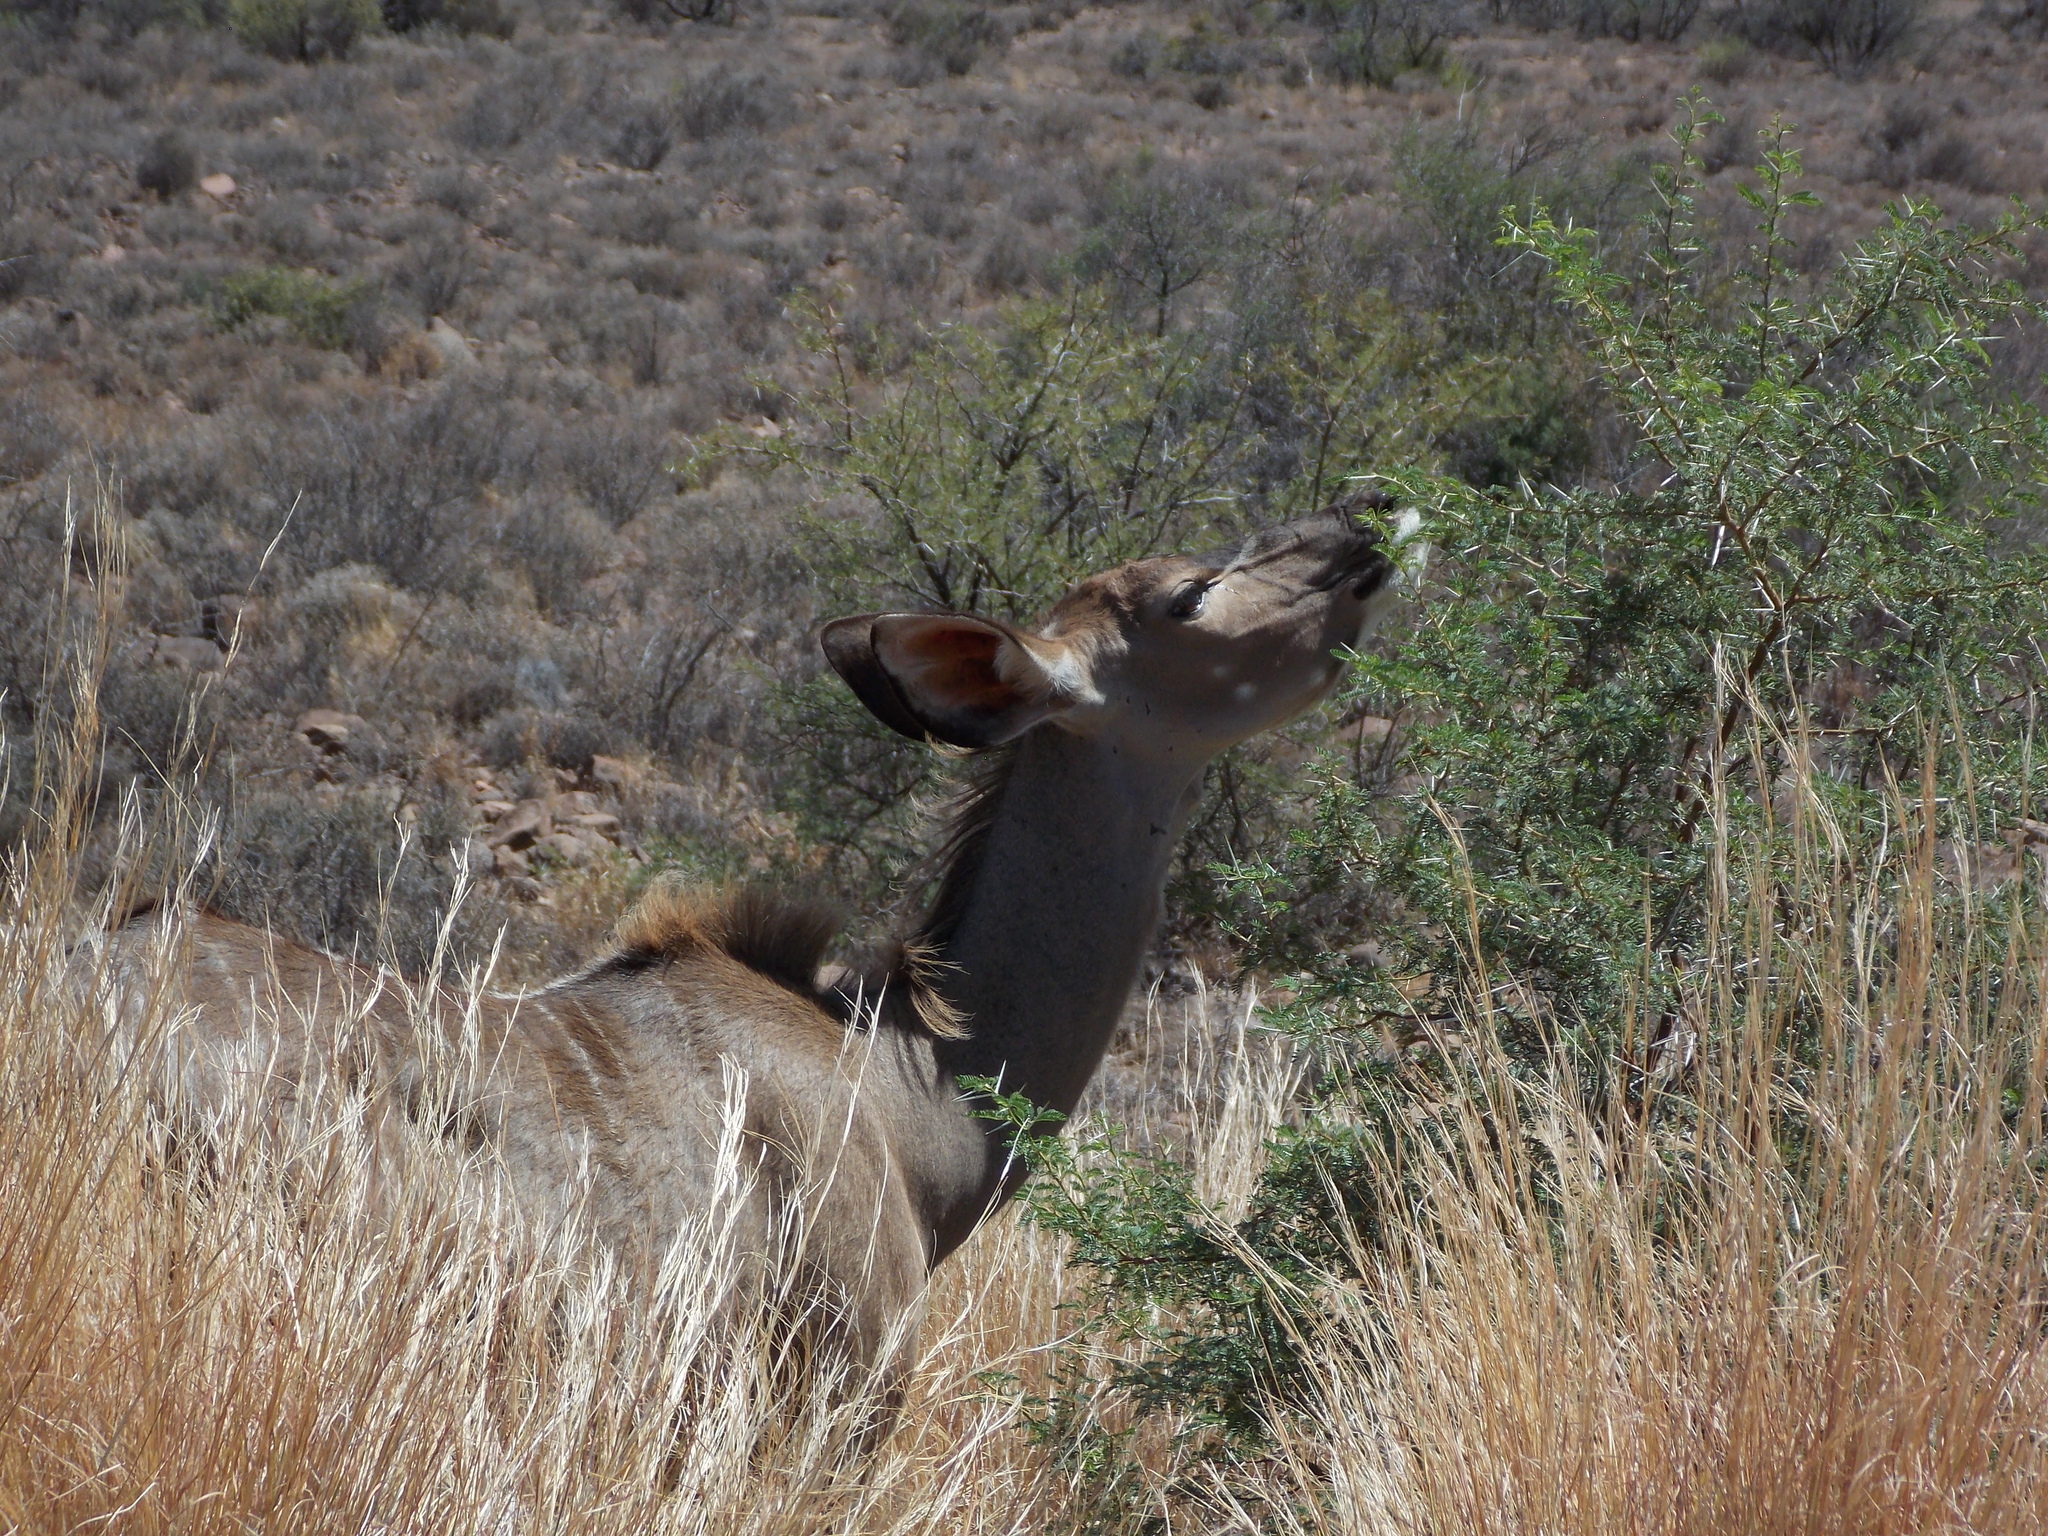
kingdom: Animalia
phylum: Chordata
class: Mammalia
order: Artiodactyla
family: Bovidae
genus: Tragelaphus
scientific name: Tragelaphus strepsiceros
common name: Greater kudu
